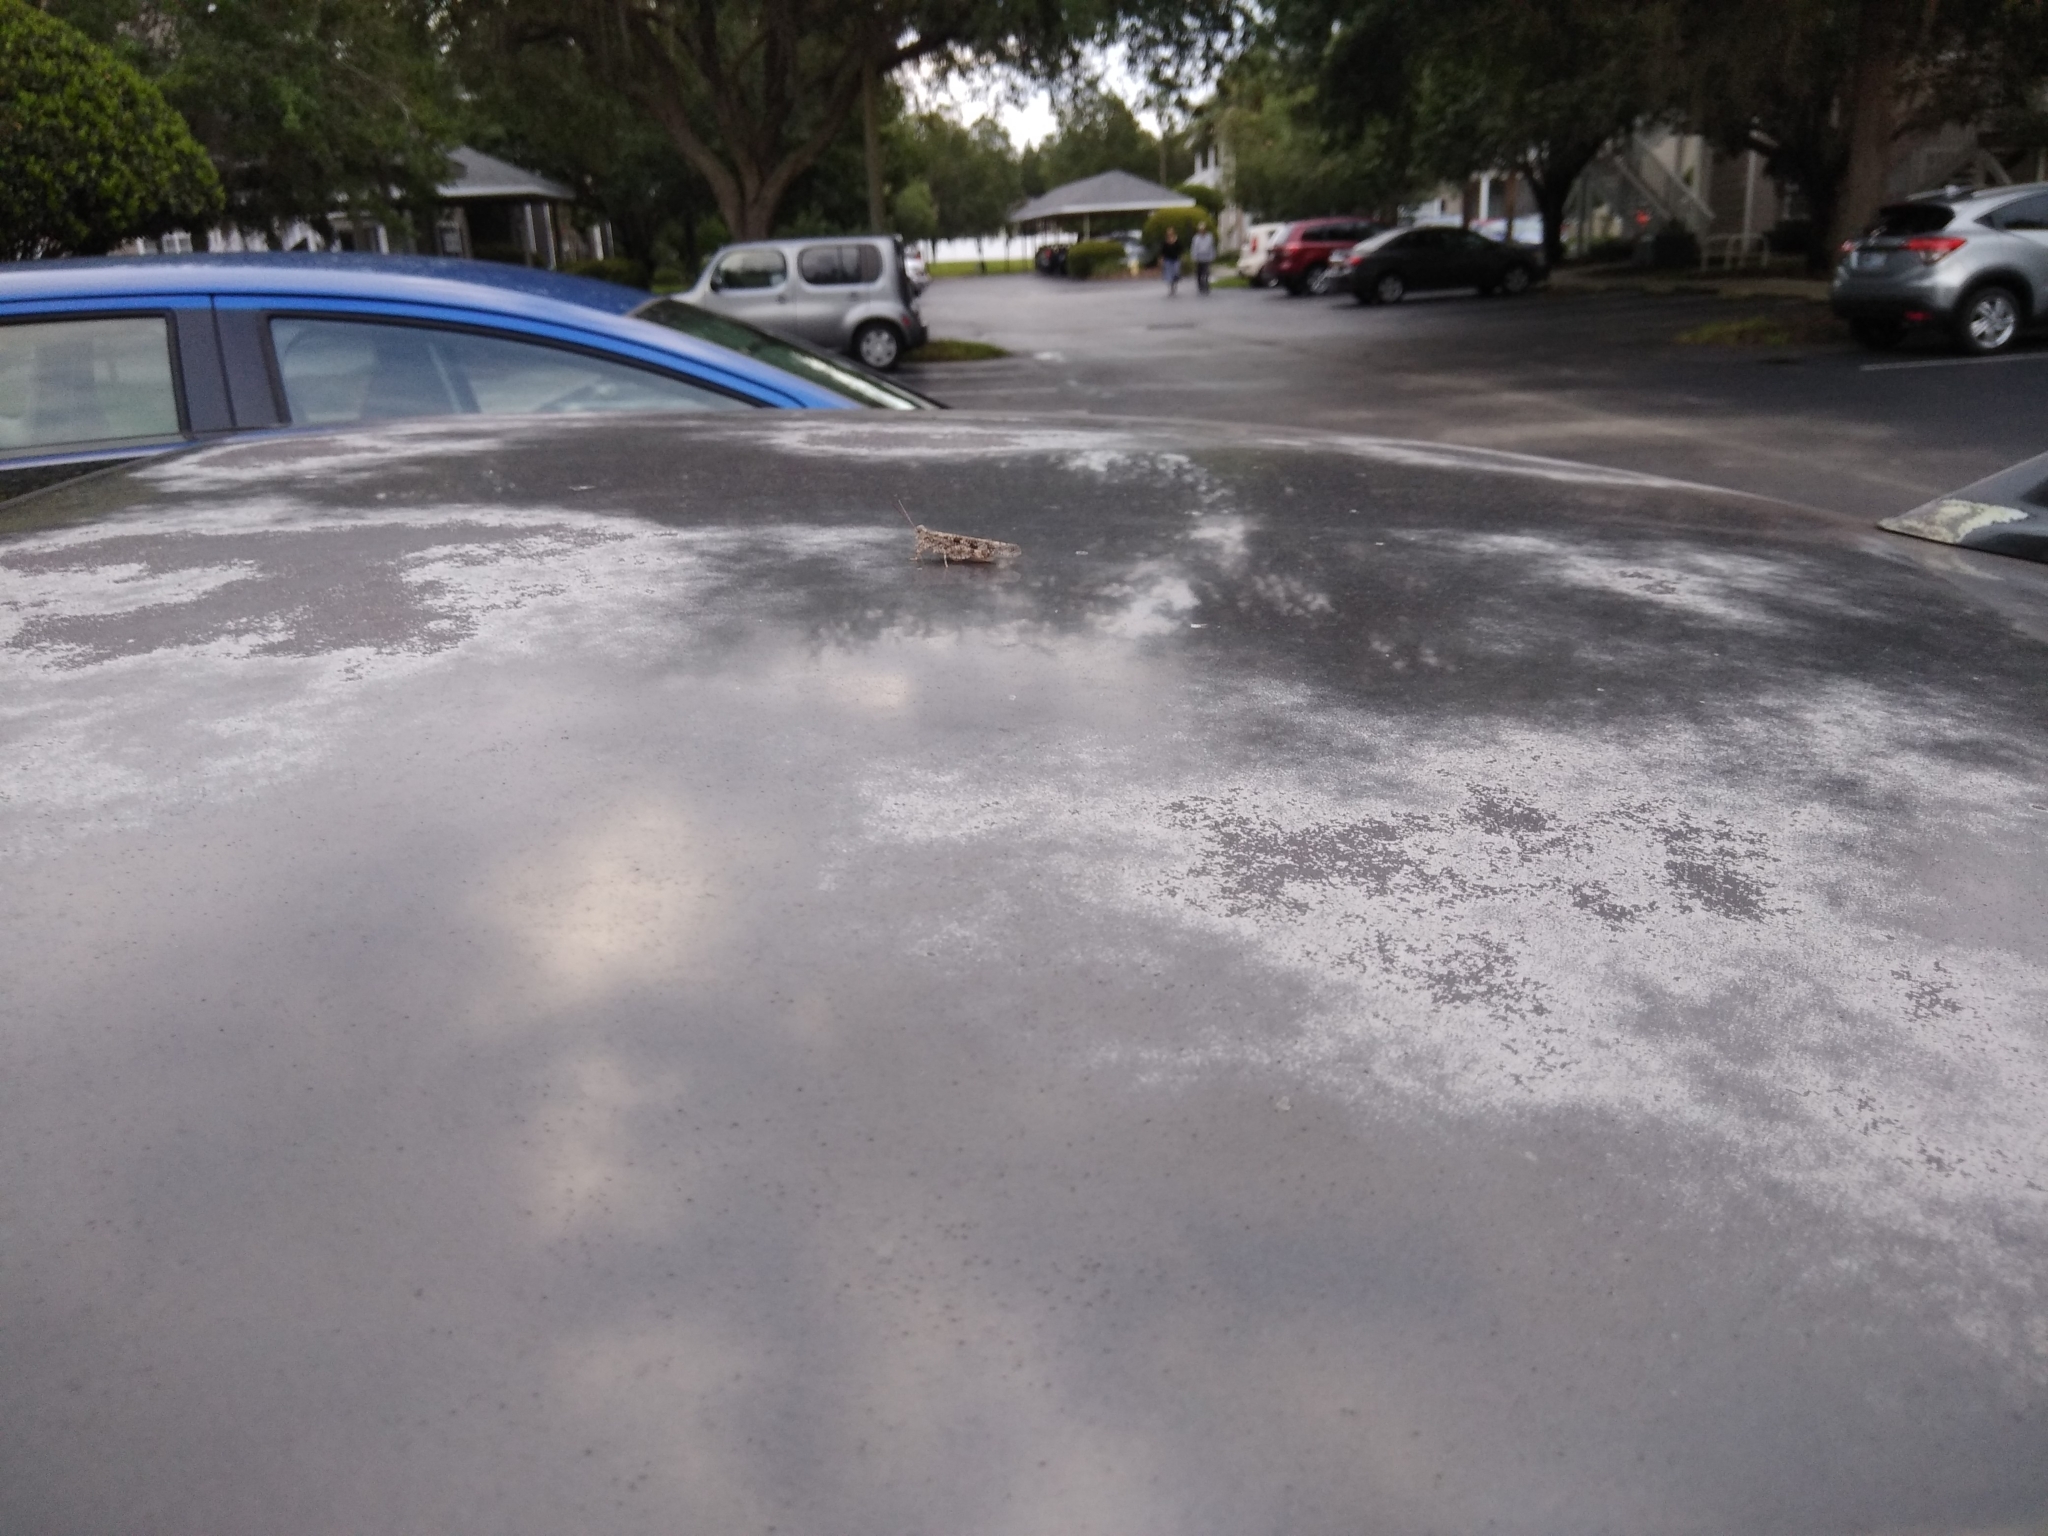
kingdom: Animalia
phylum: Arthropoda
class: Insecta
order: Orthoptera
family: Acrididae
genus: Trimerotropis
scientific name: Trimerotropis maritima
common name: Seaside locust
